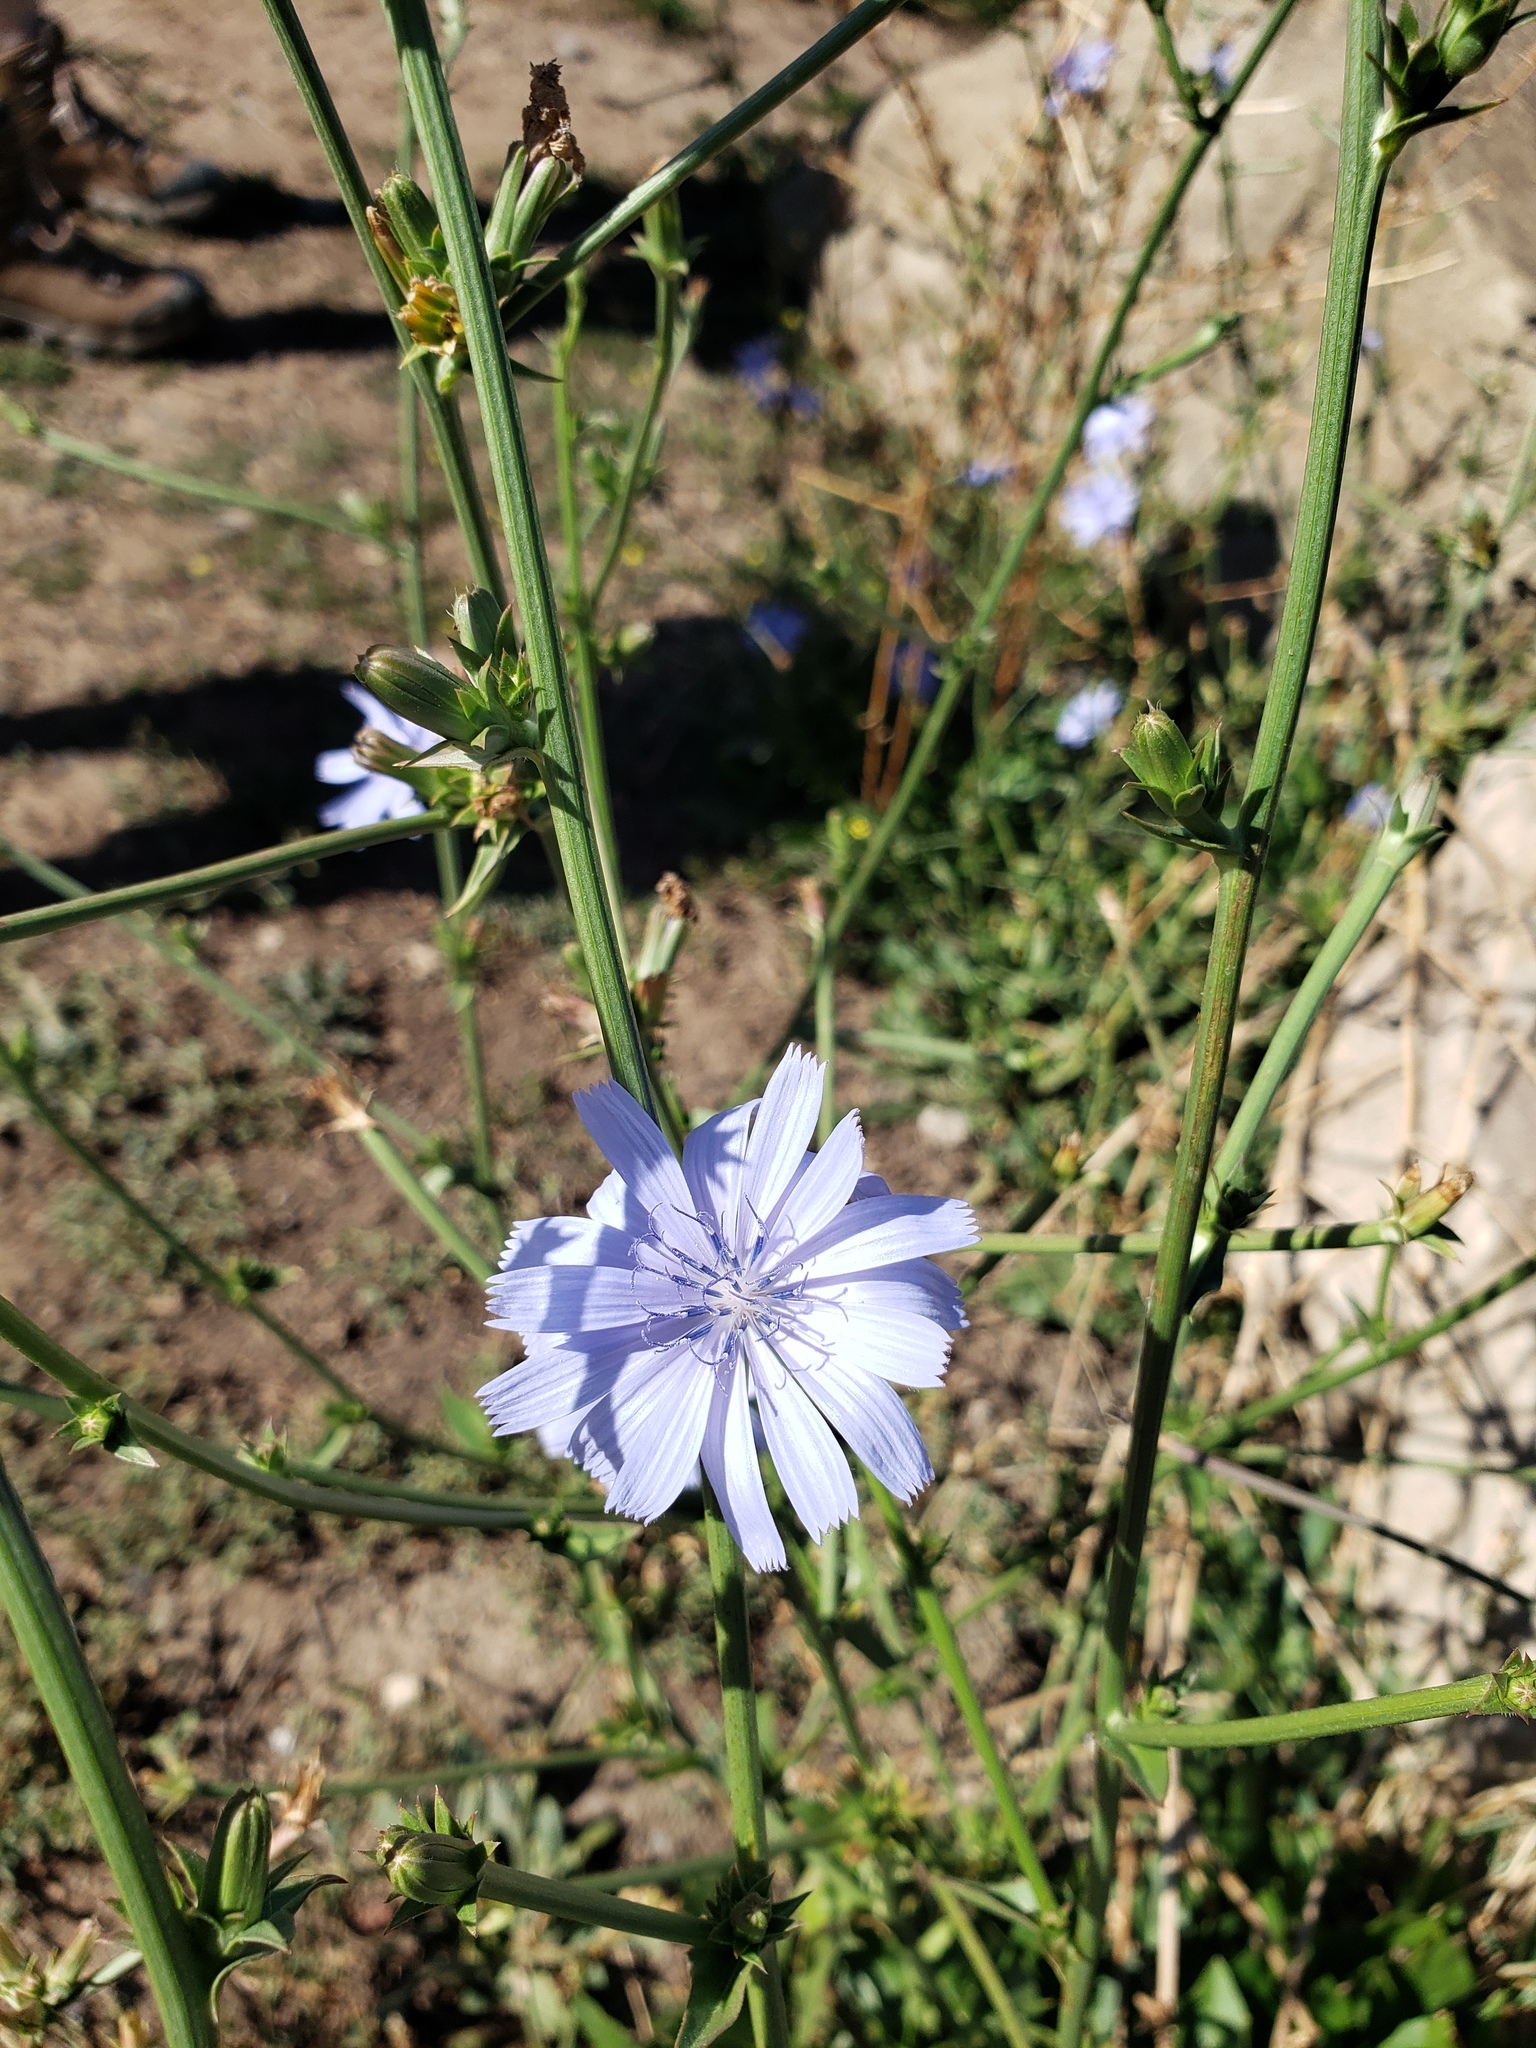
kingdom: Plantae
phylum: Tracheophyta
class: Magnoliopsida
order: Asterales
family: Asteraceae
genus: Cichorium
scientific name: Cichorium intybus
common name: Chicory
